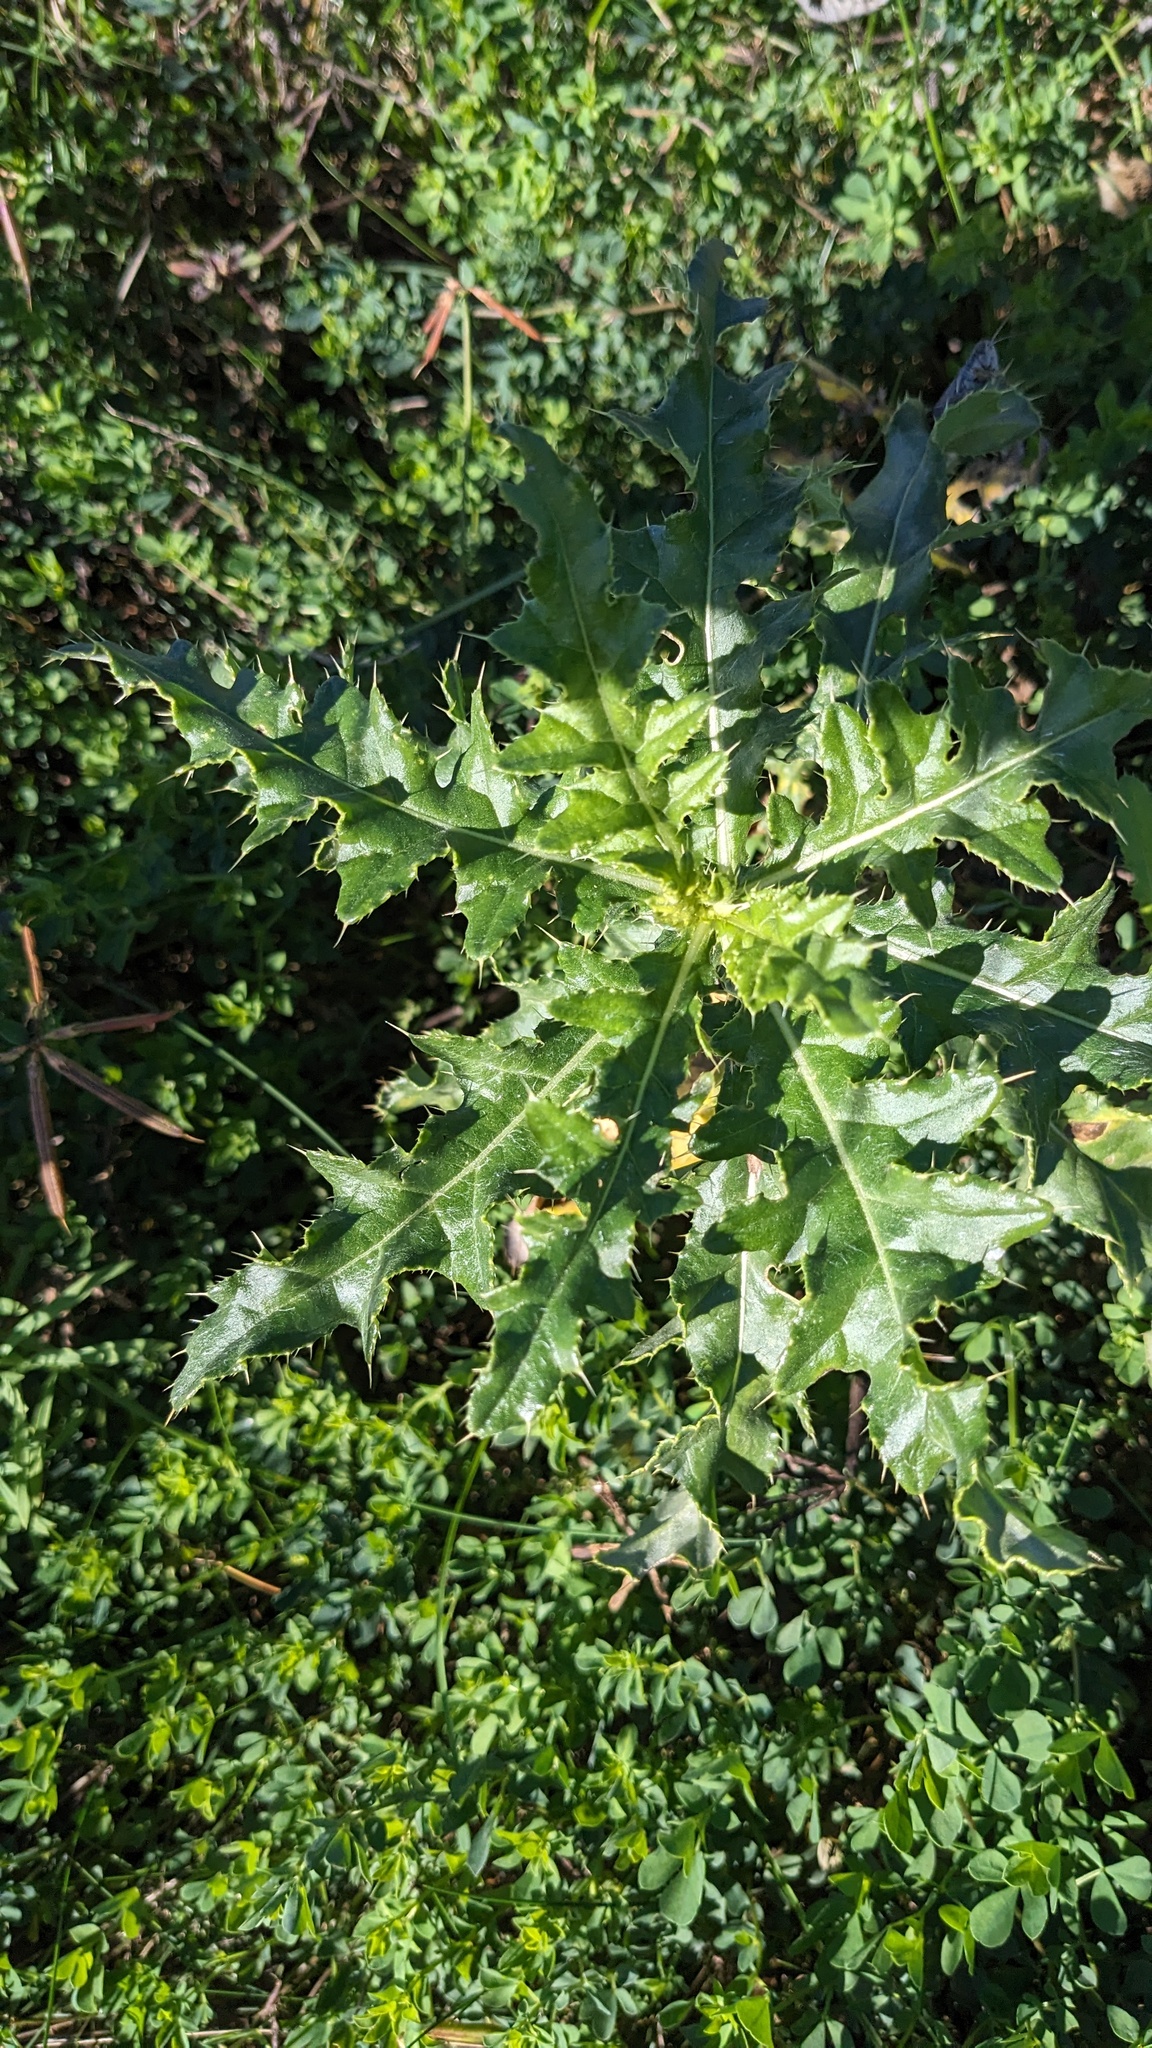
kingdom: Plantae
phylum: Tracheophyta
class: Magnoliopsida
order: Asterales
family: Asteraceae
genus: Cirsium
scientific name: Cirsium arvense
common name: Creeping thistle
